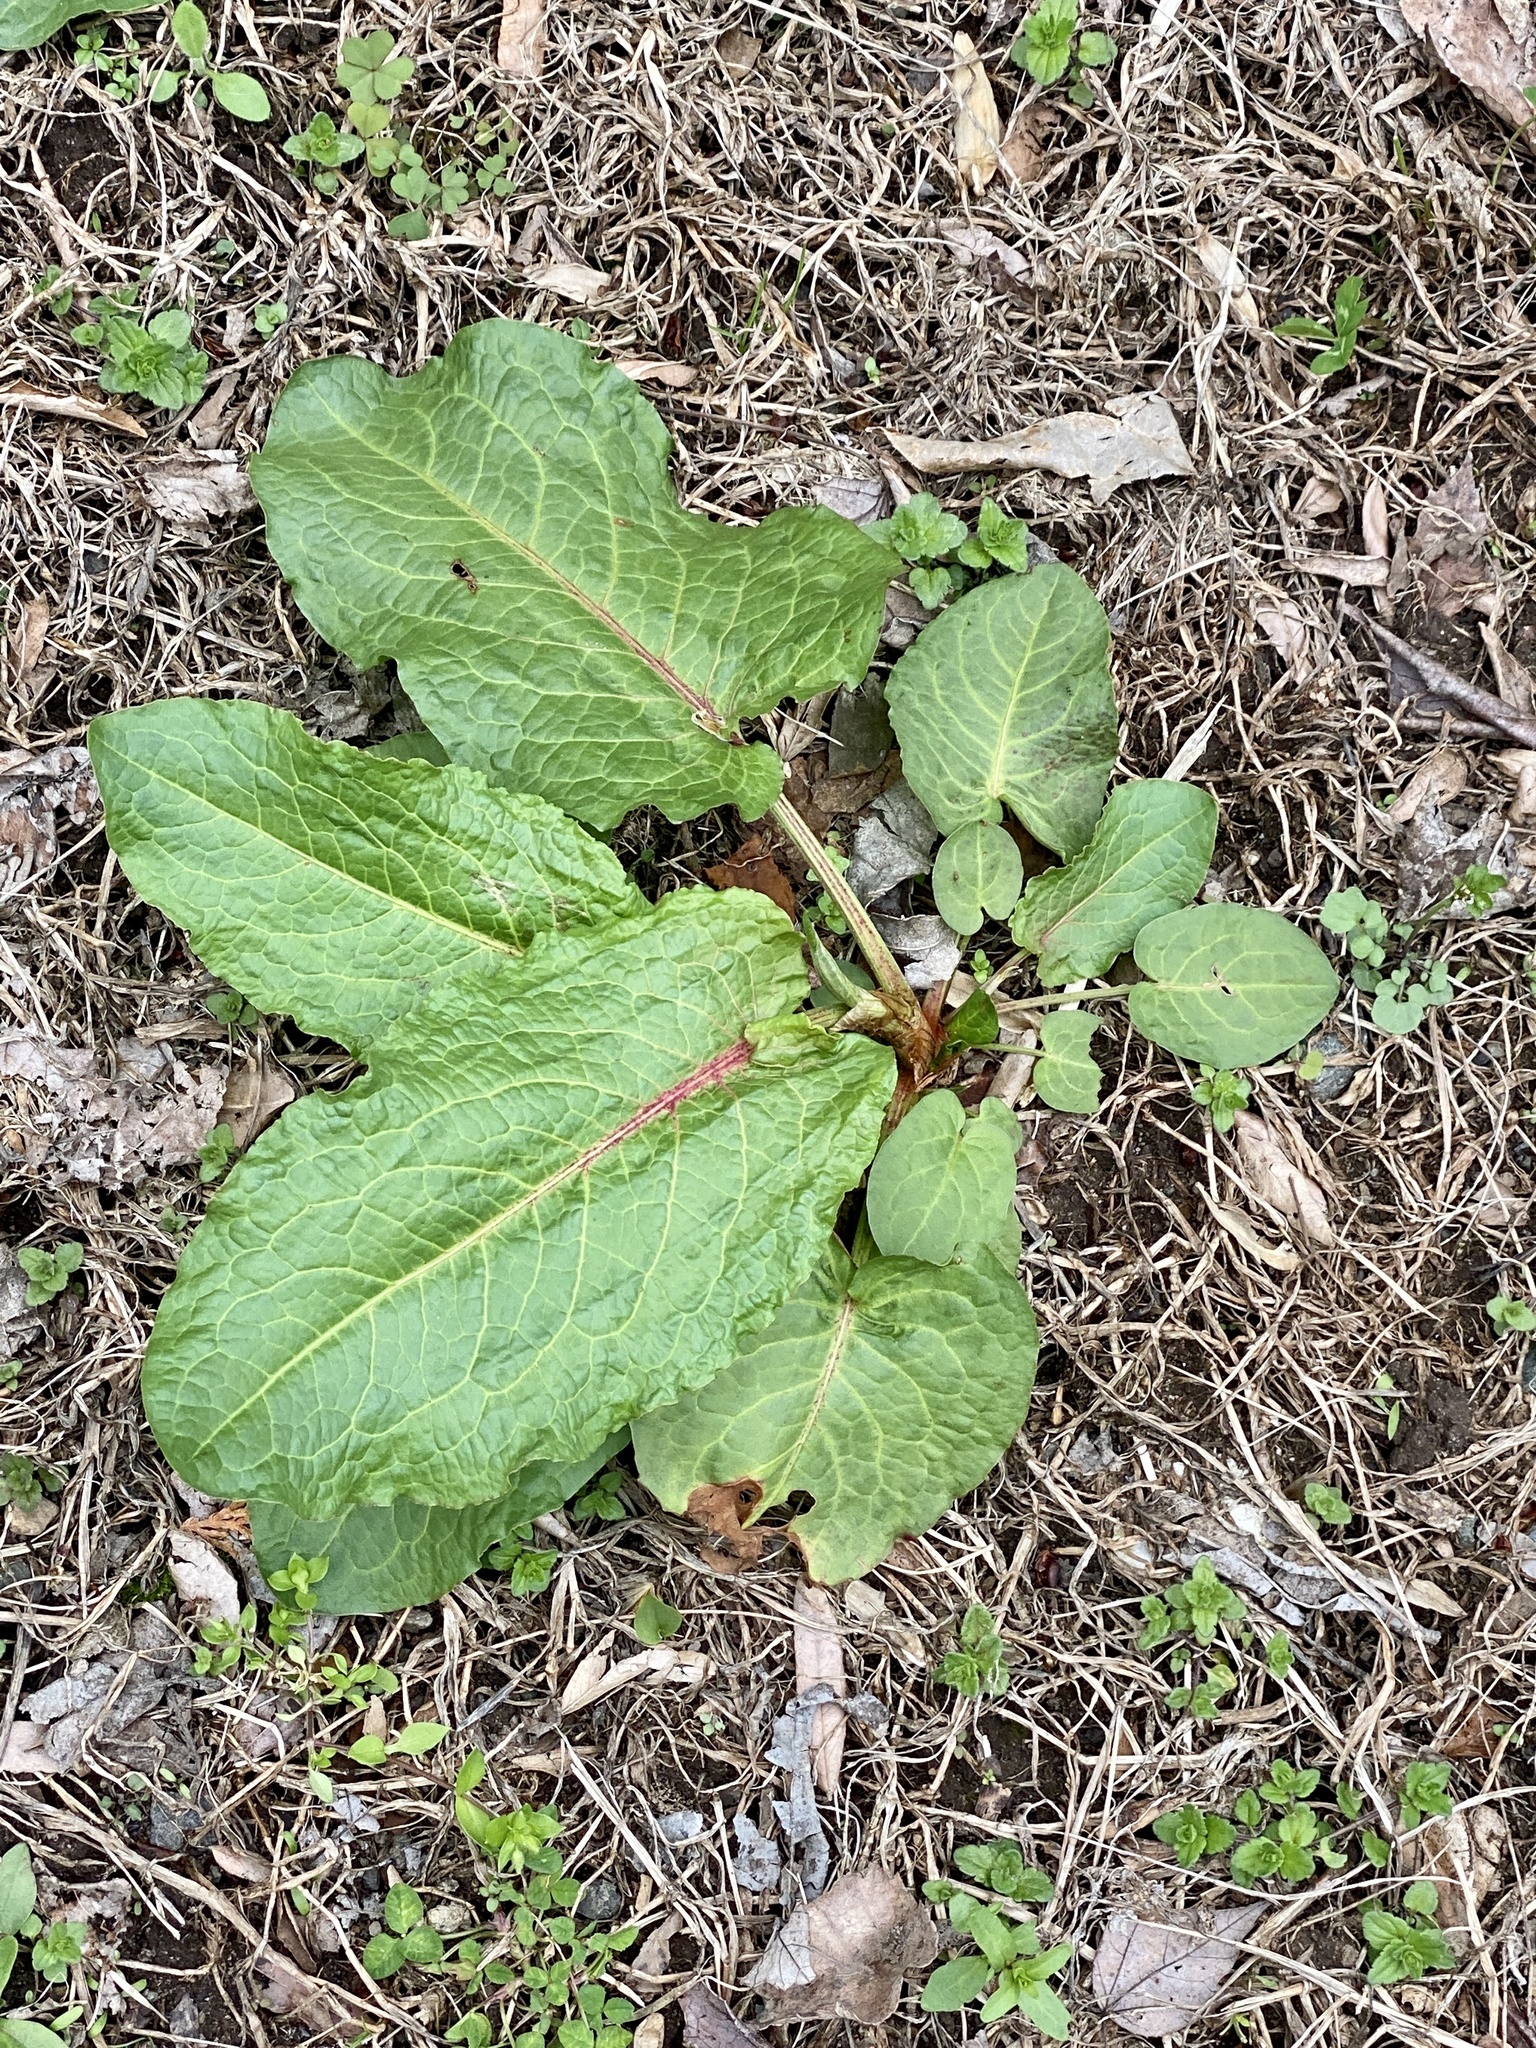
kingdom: Plantae
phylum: Tracheophyta
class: Magnoliopsida
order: Caryophyllales
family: Polygonaceae
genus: Rumex
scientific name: Rumex obtusifolius
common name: Bitter dock
